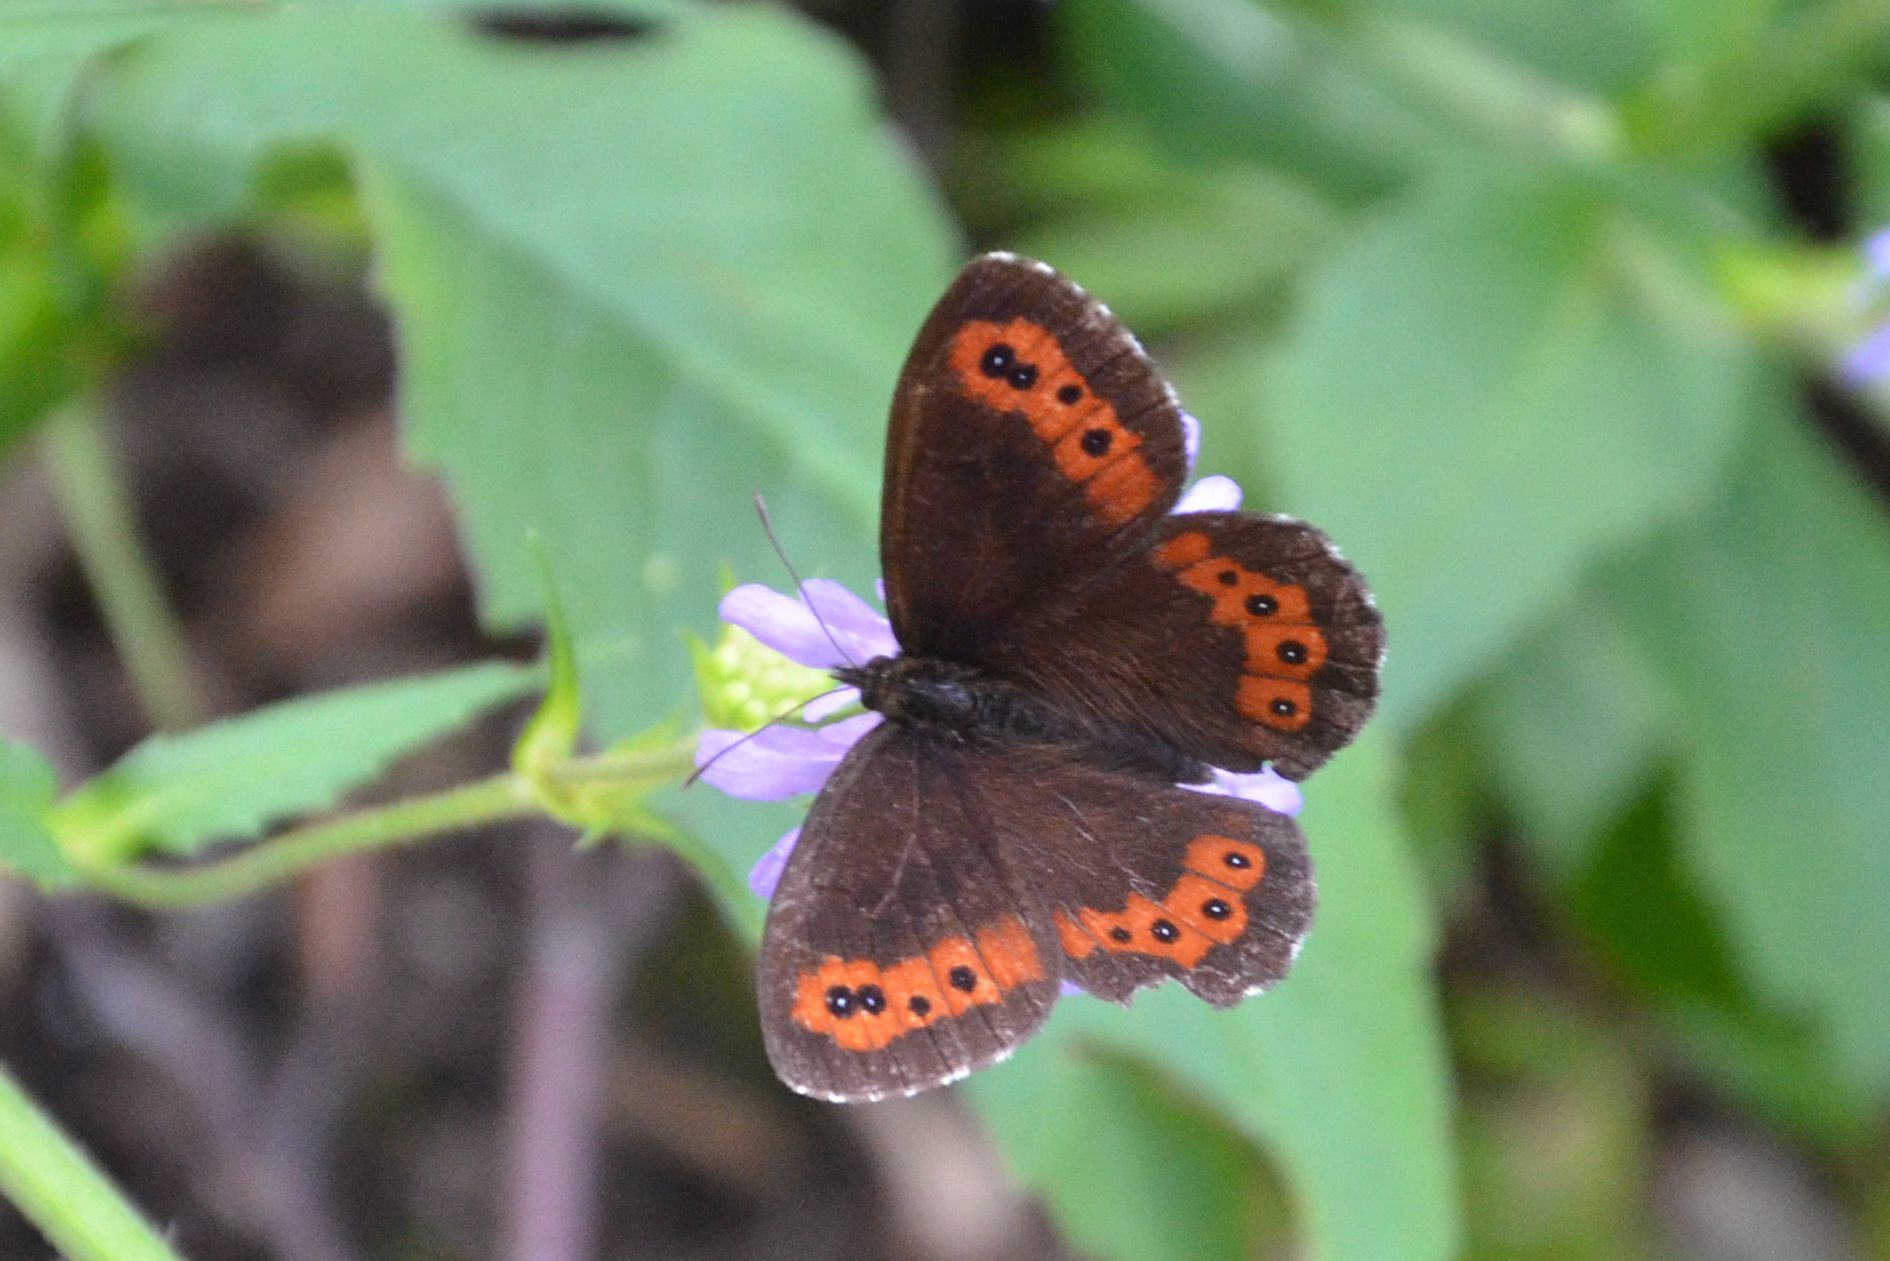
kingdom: Animalia
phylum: Arthropoda
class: Insecta
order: Lepidoptera
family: Nymphalidae
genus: Erebia
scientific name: Erebia ligea
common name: Arran brown
